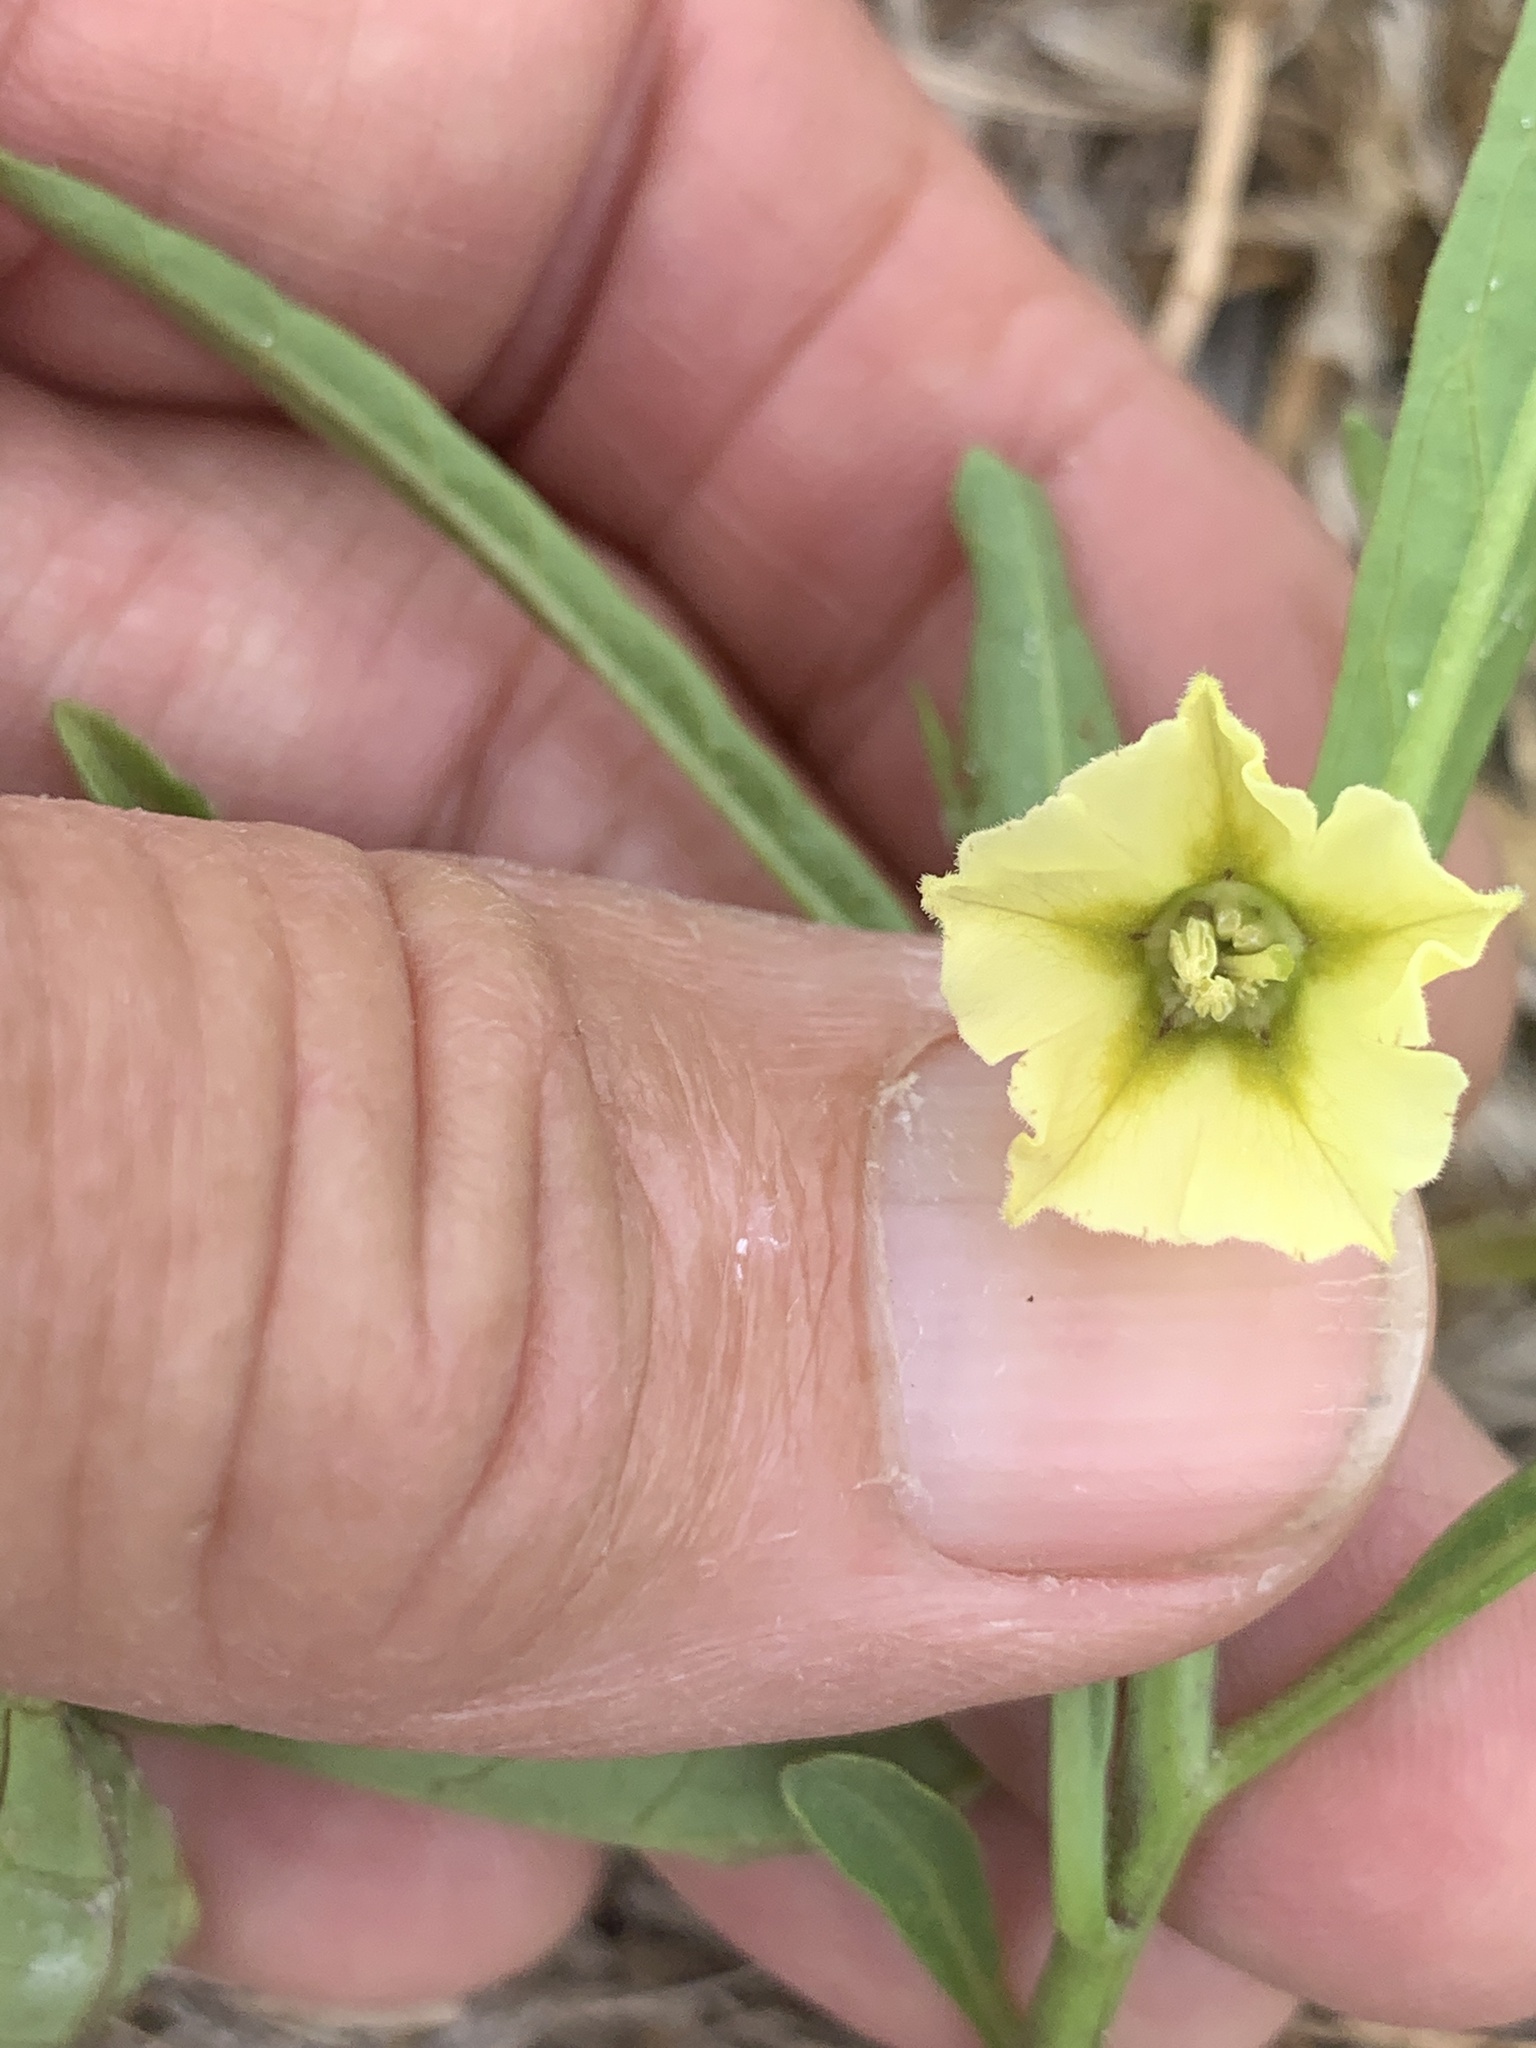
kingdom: Plantae
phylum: Tracheophyta
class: Magnoliopsida
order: Solanales
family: Solanaceae
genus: Physalis
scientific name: Physalis angustifolia
